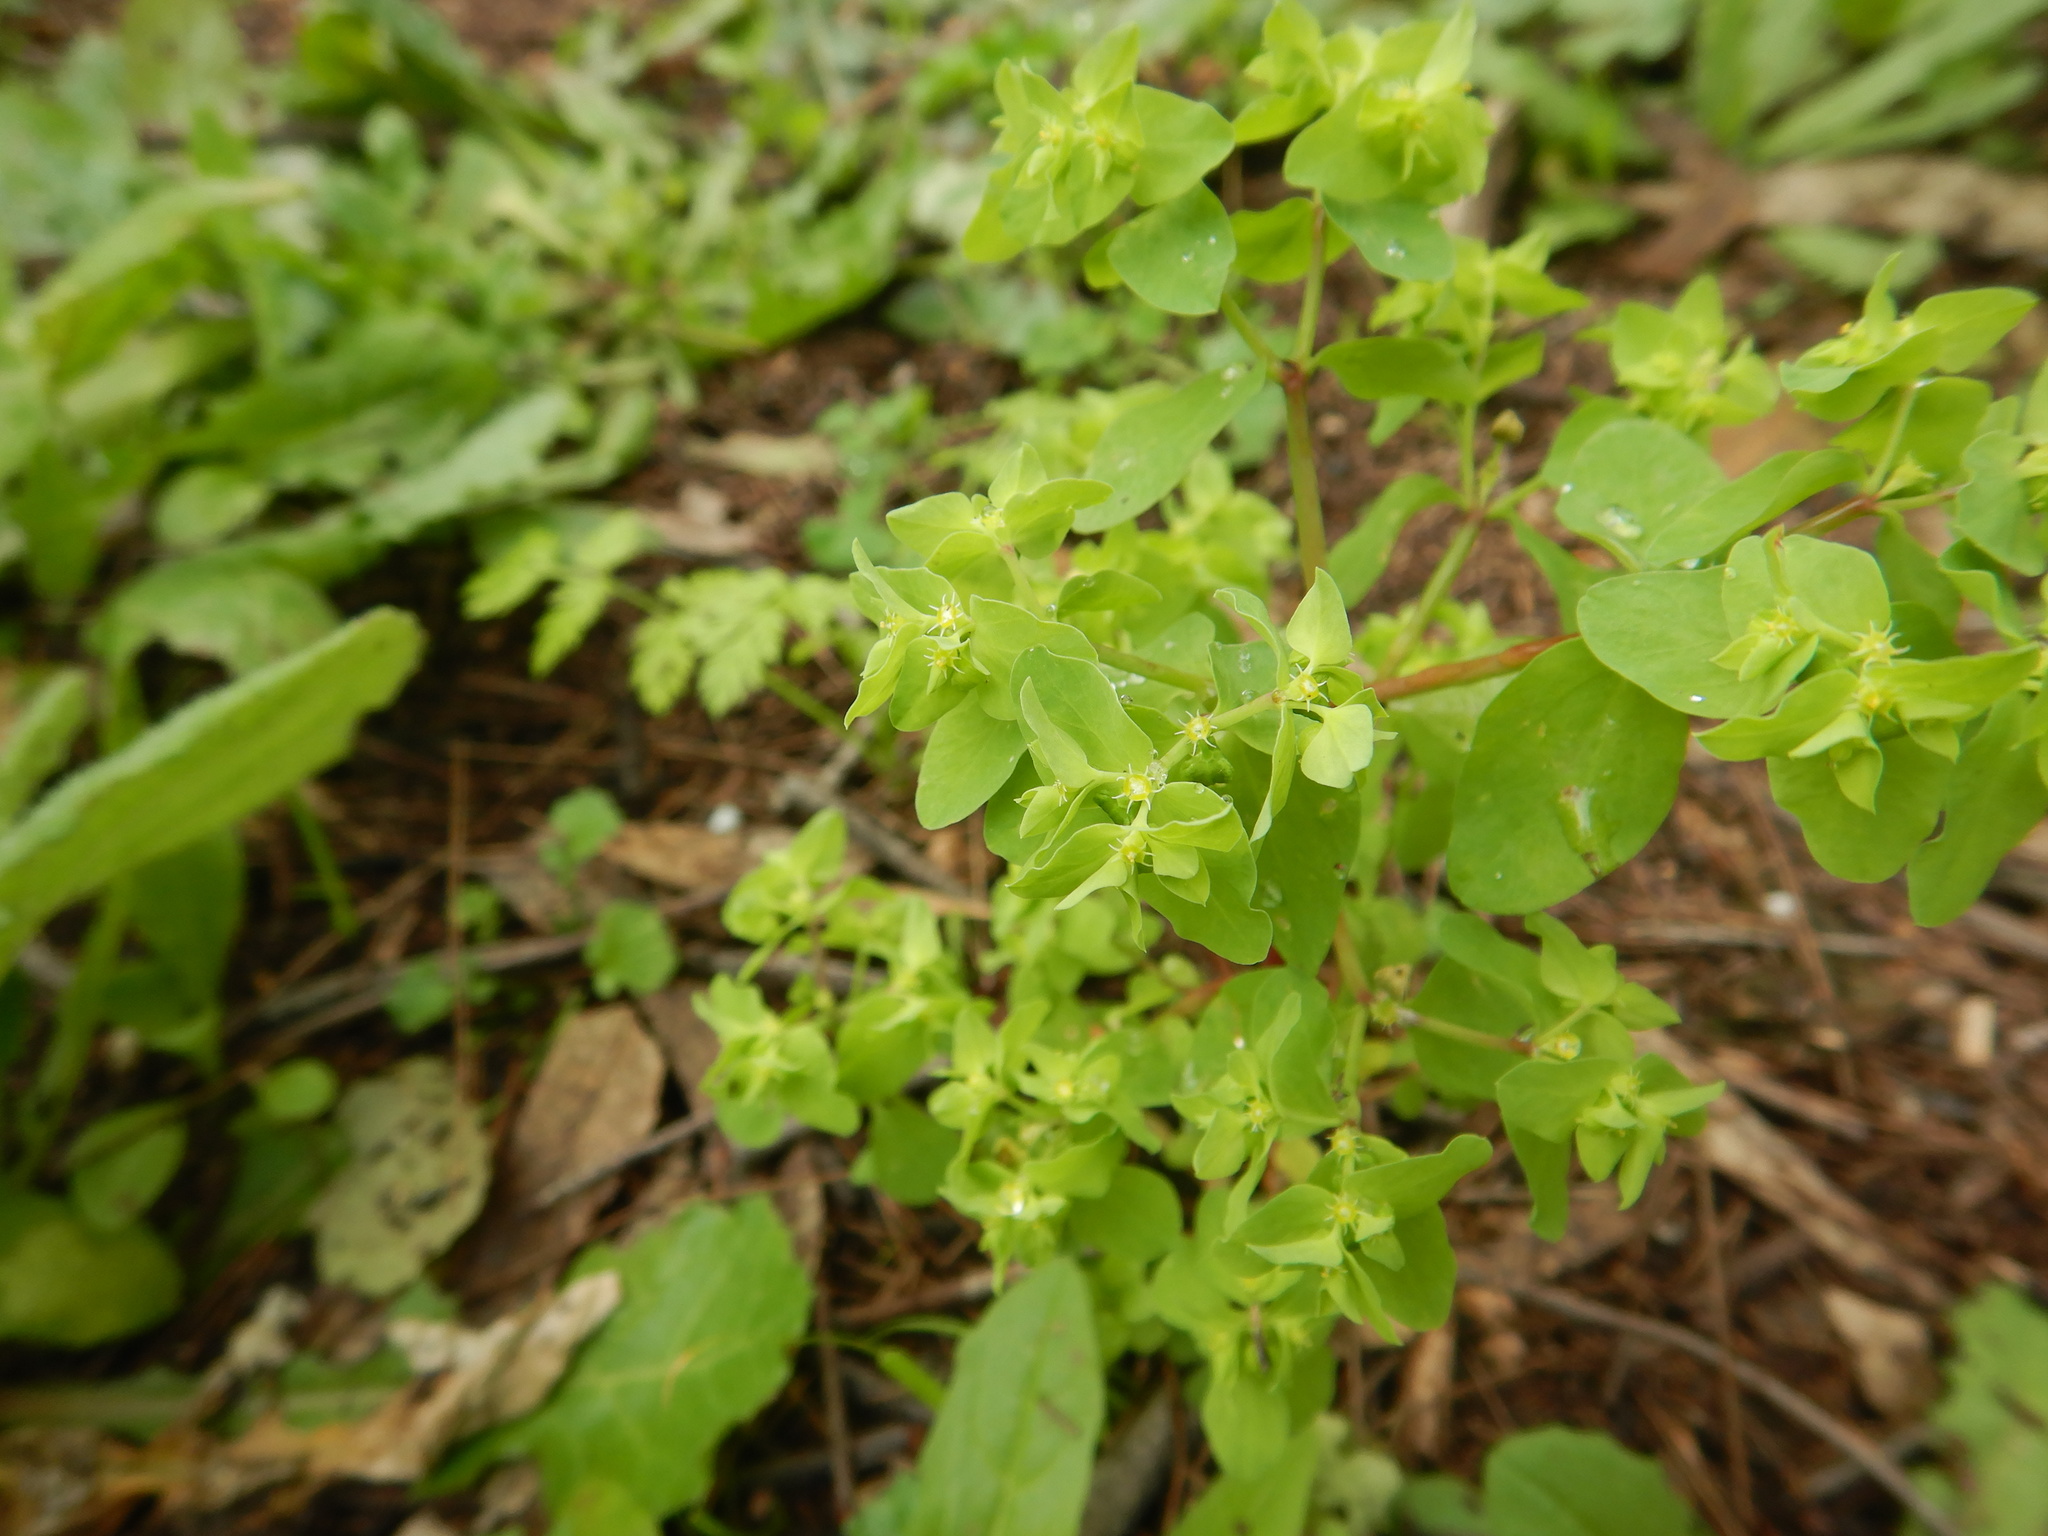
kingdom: Plantae
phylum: Tracheophyta
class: Magnoliopsida
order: Malpighiales
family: Euphorbiaceae
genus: Euphorbia
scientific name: Euphorbia peplus
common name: Petty spurge
